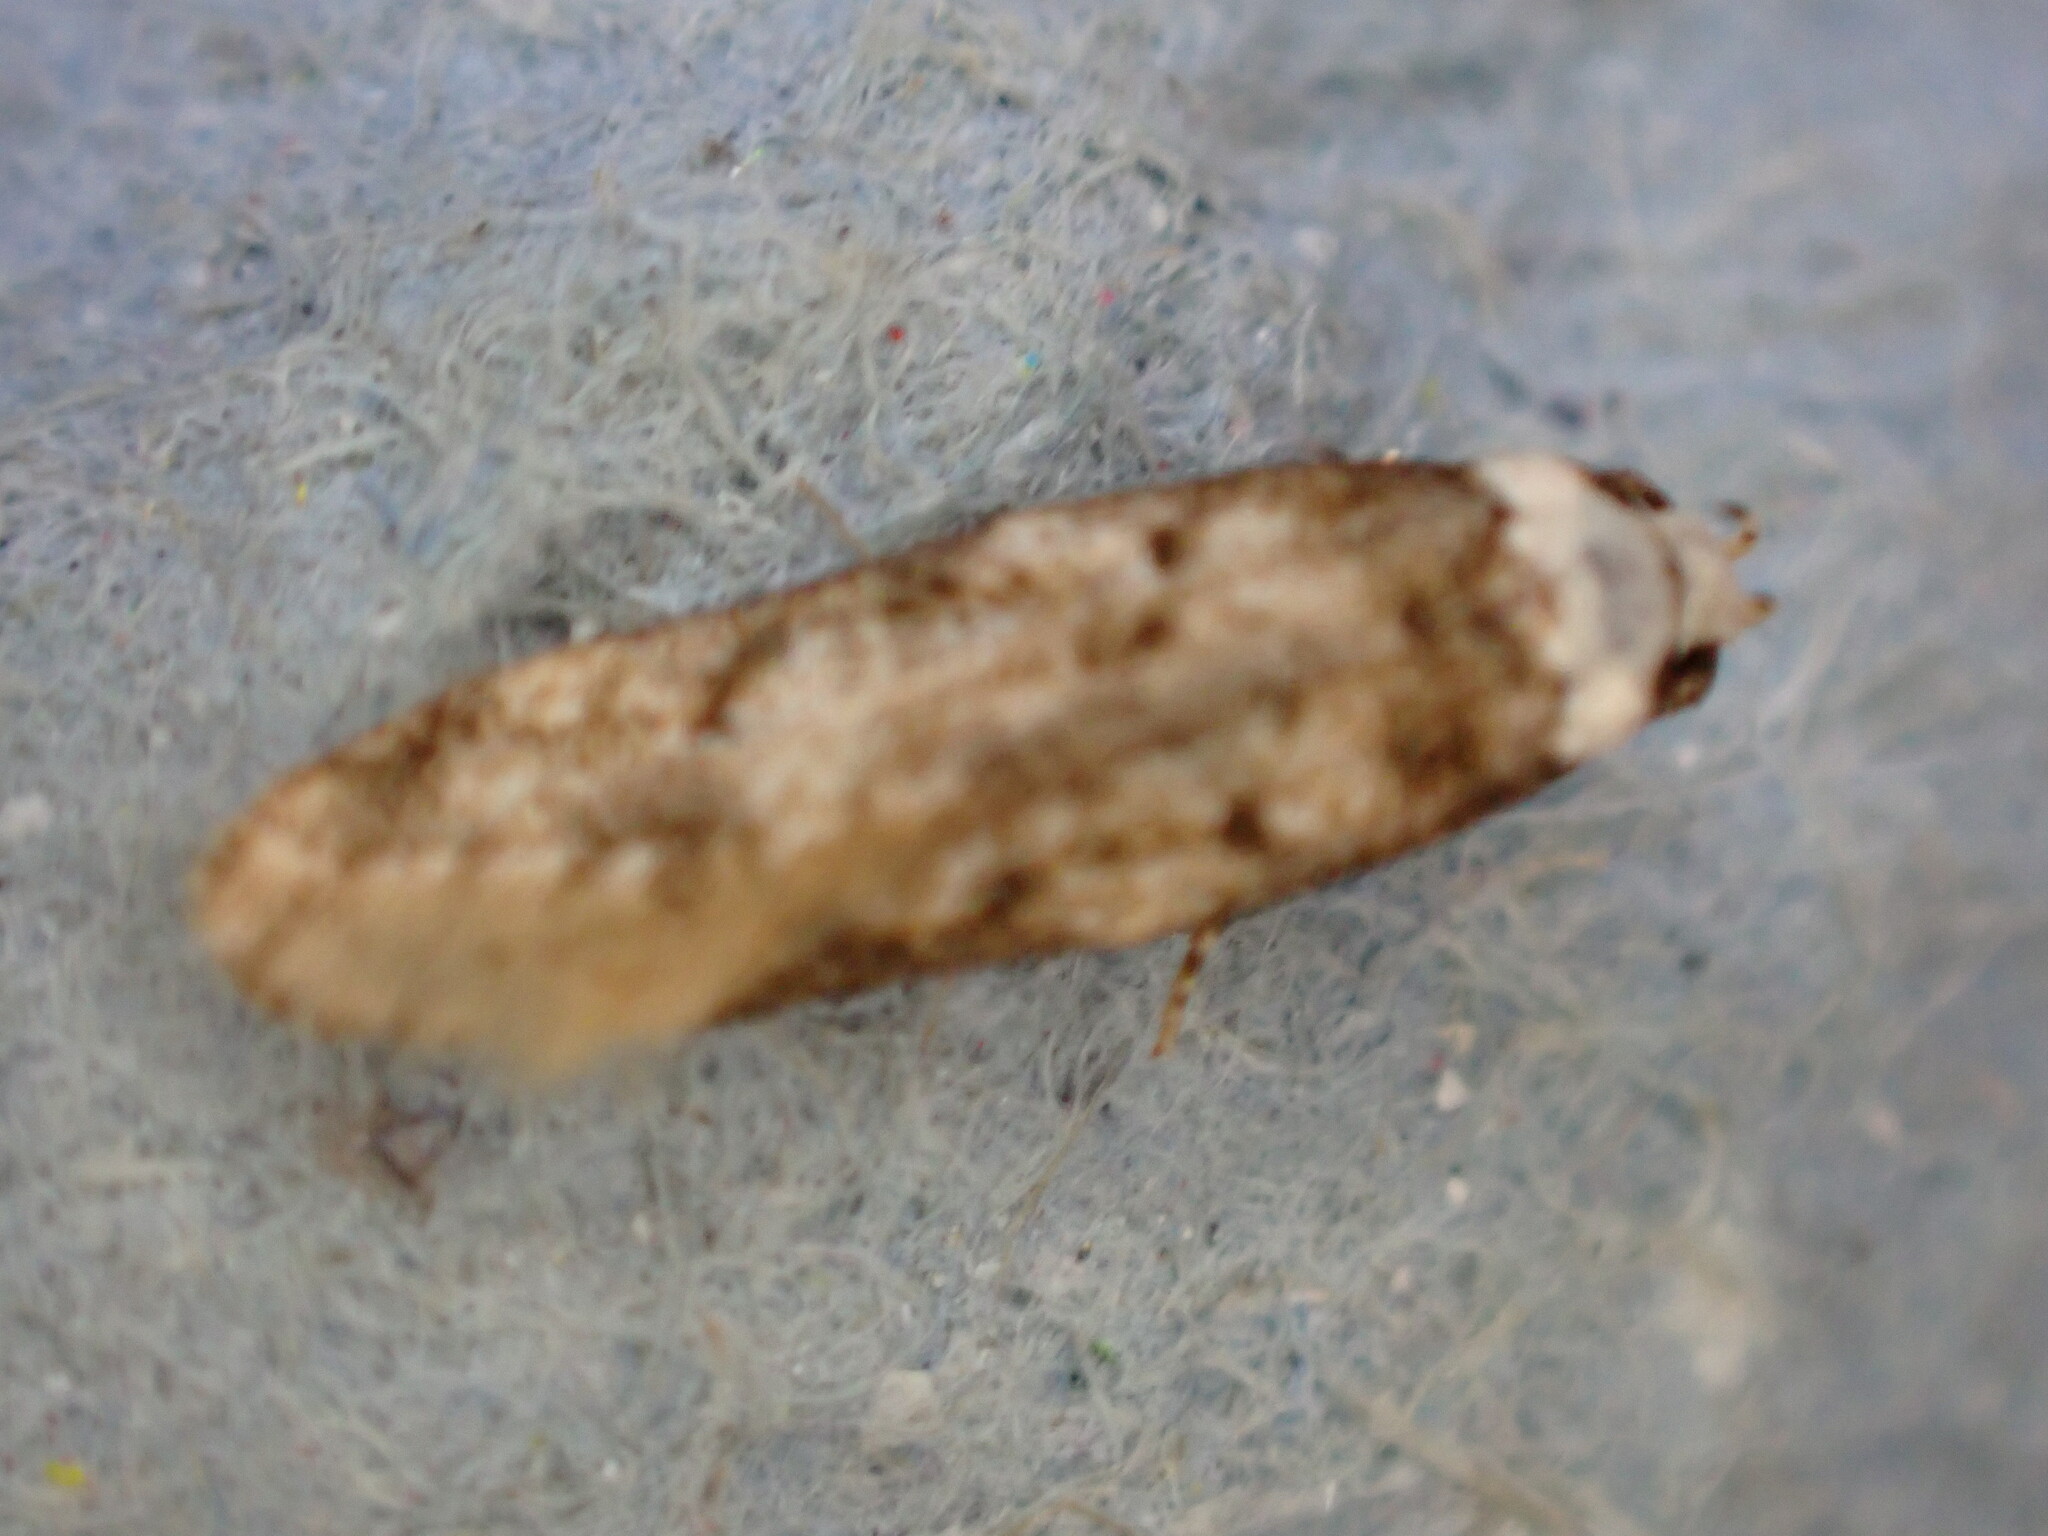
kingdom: Animalia
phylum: Arthropoda
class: Insecta
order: Lepidoptera
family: Oecophoridae
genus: Endrosis
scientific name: Endrosis sarcitrella
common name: White-shouldered house moth
